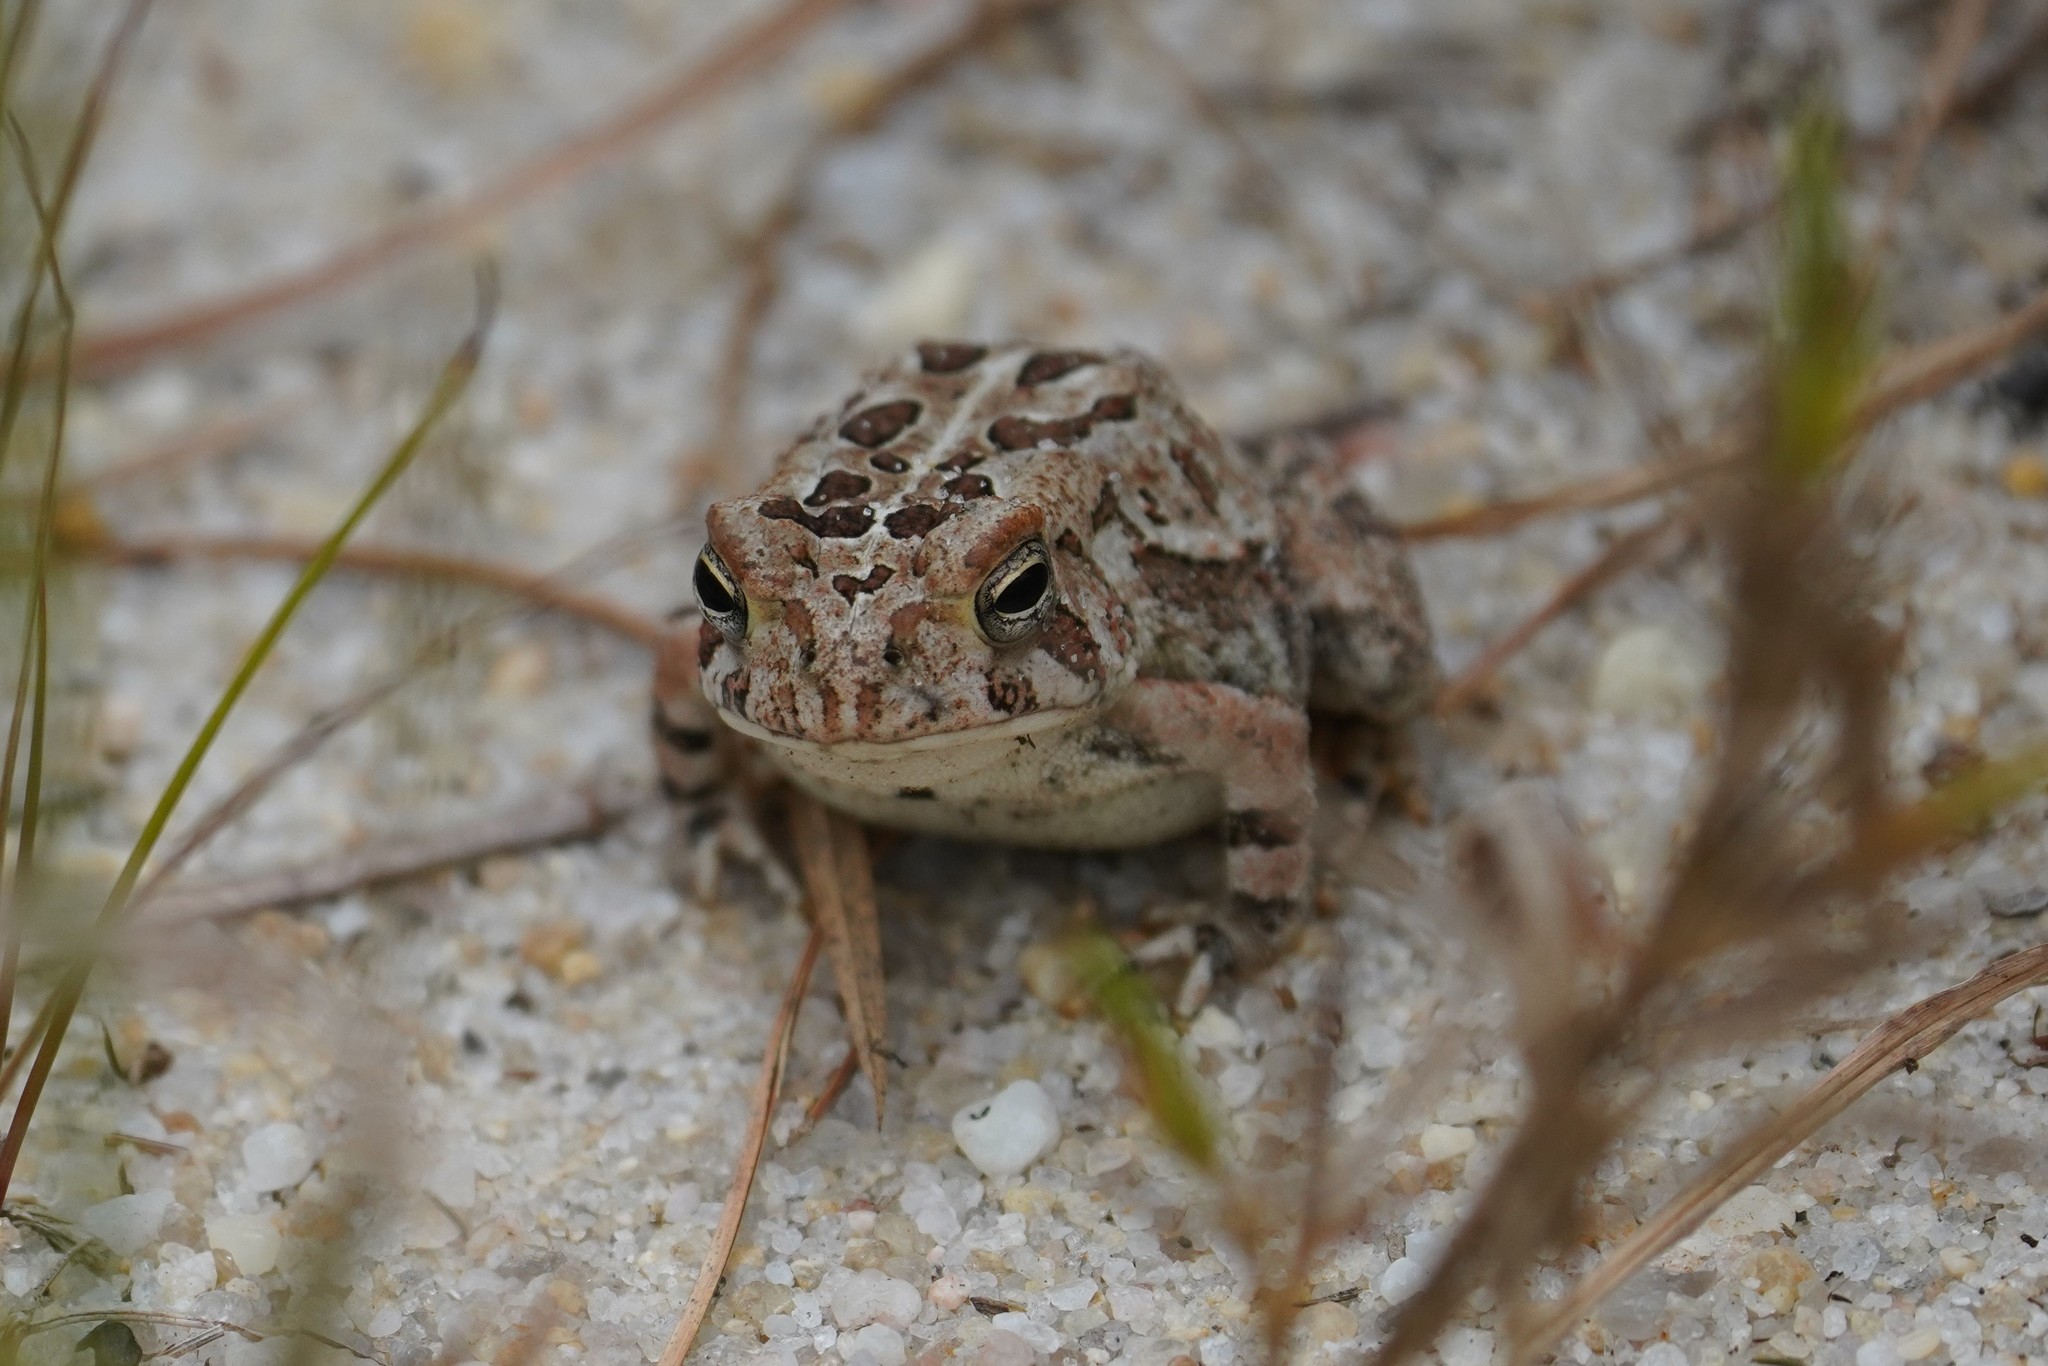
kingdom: Animalia
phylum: Chordata
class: Amphibia
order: Anura
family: Bufonidae
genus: Anaxyrus
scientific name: Anaxyrus fowleri
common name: Fowler's toad
